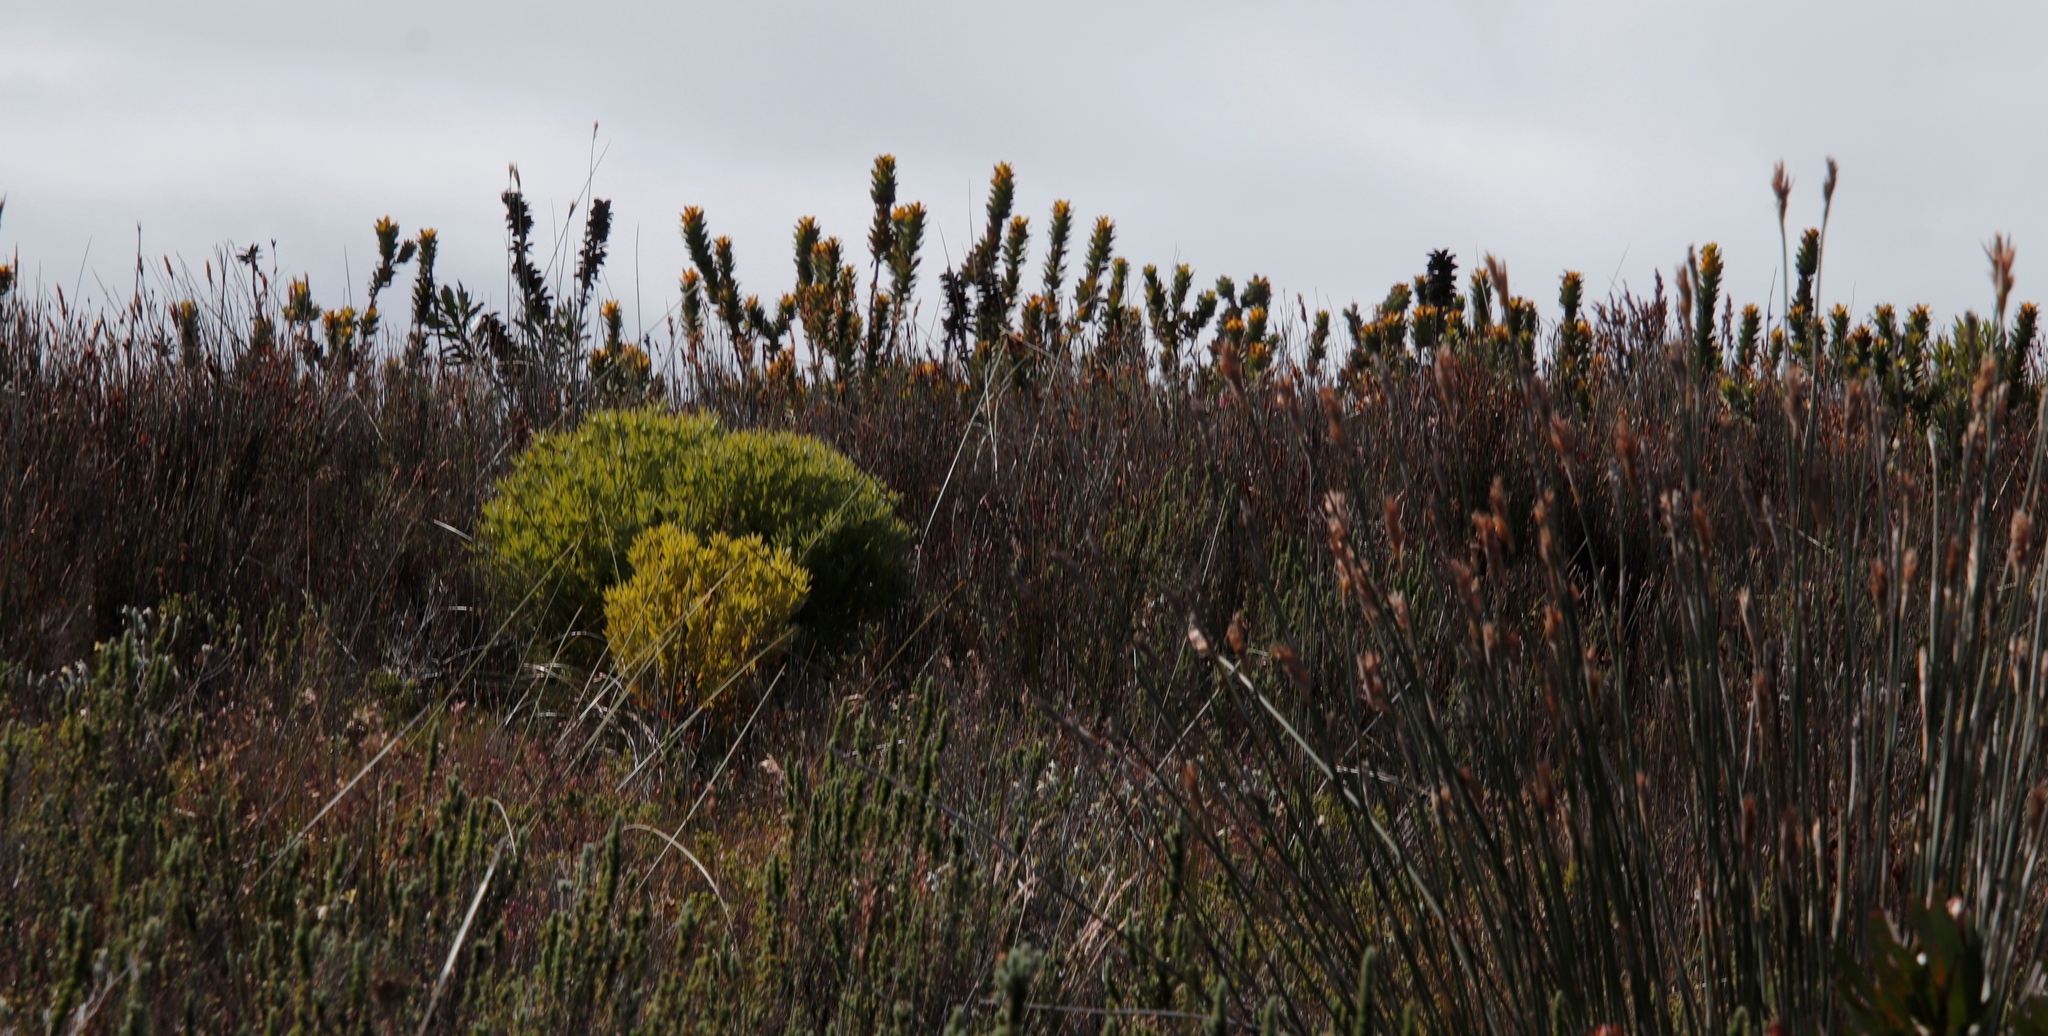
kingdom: Plantae
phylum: Tracheophyta
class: Magnoliopsida
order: Proteales
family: Proteaceae
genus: Mimetes
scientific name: Mimetes saxatilis
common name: Limestone pagoda
